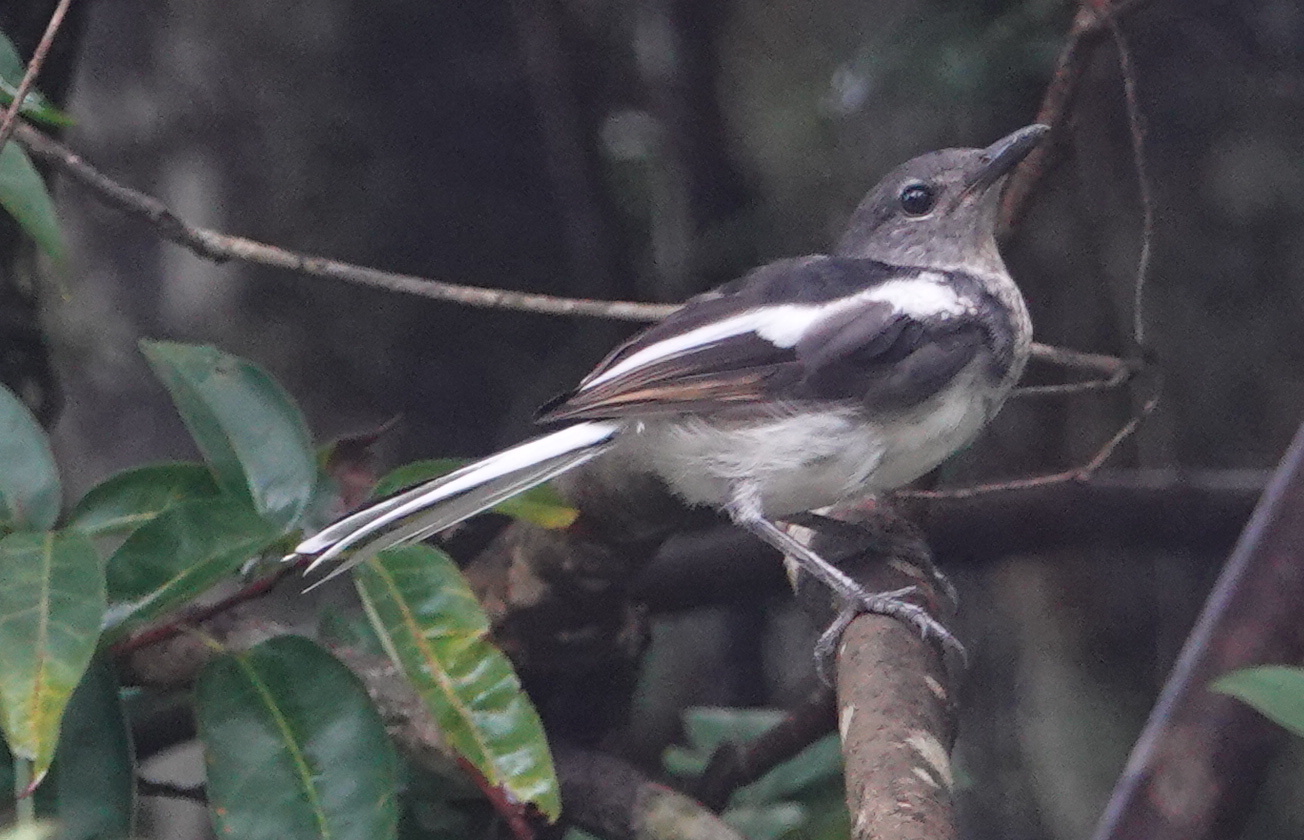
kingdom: Animalia
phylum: Chordata
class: Aves
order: Passeriformes
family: Muscicapidae
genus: Copsychus
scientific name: Copsychus saularis
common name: Oriental magpie-robin
